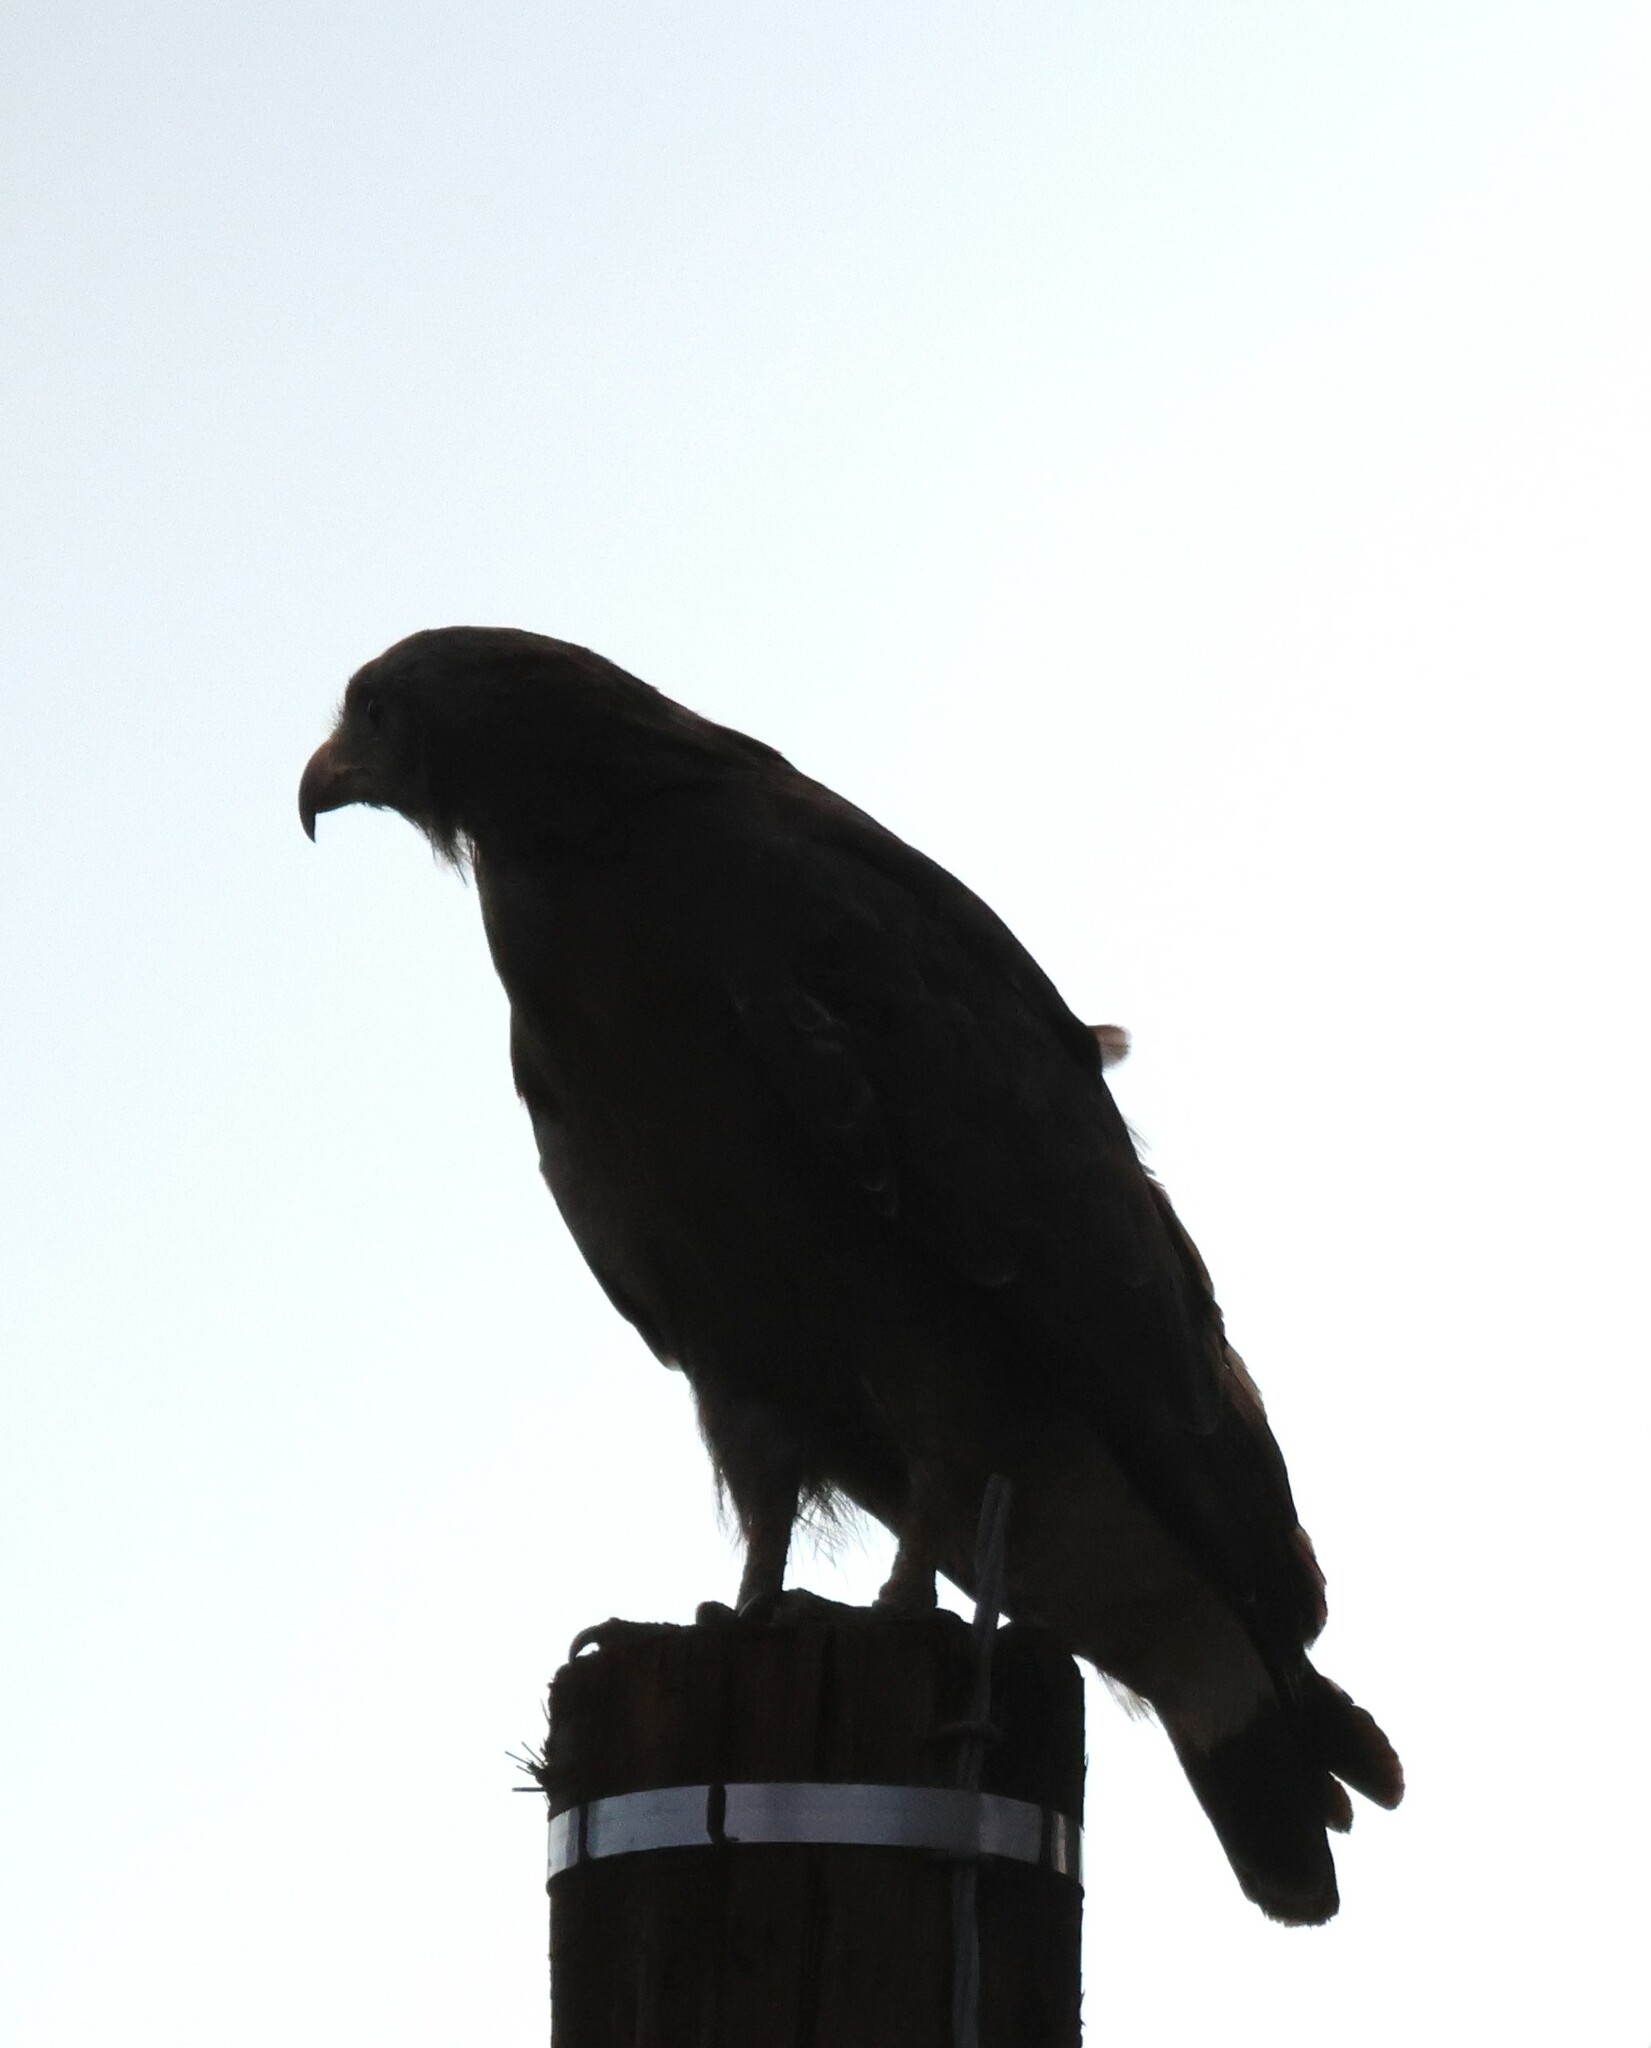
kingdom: Animalia
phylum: Chordata
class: Aves
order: Accipitriformes
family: Accipitridae
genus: Circaetus
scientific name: Circaetus cinerascens
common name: Western banded snake eagle
